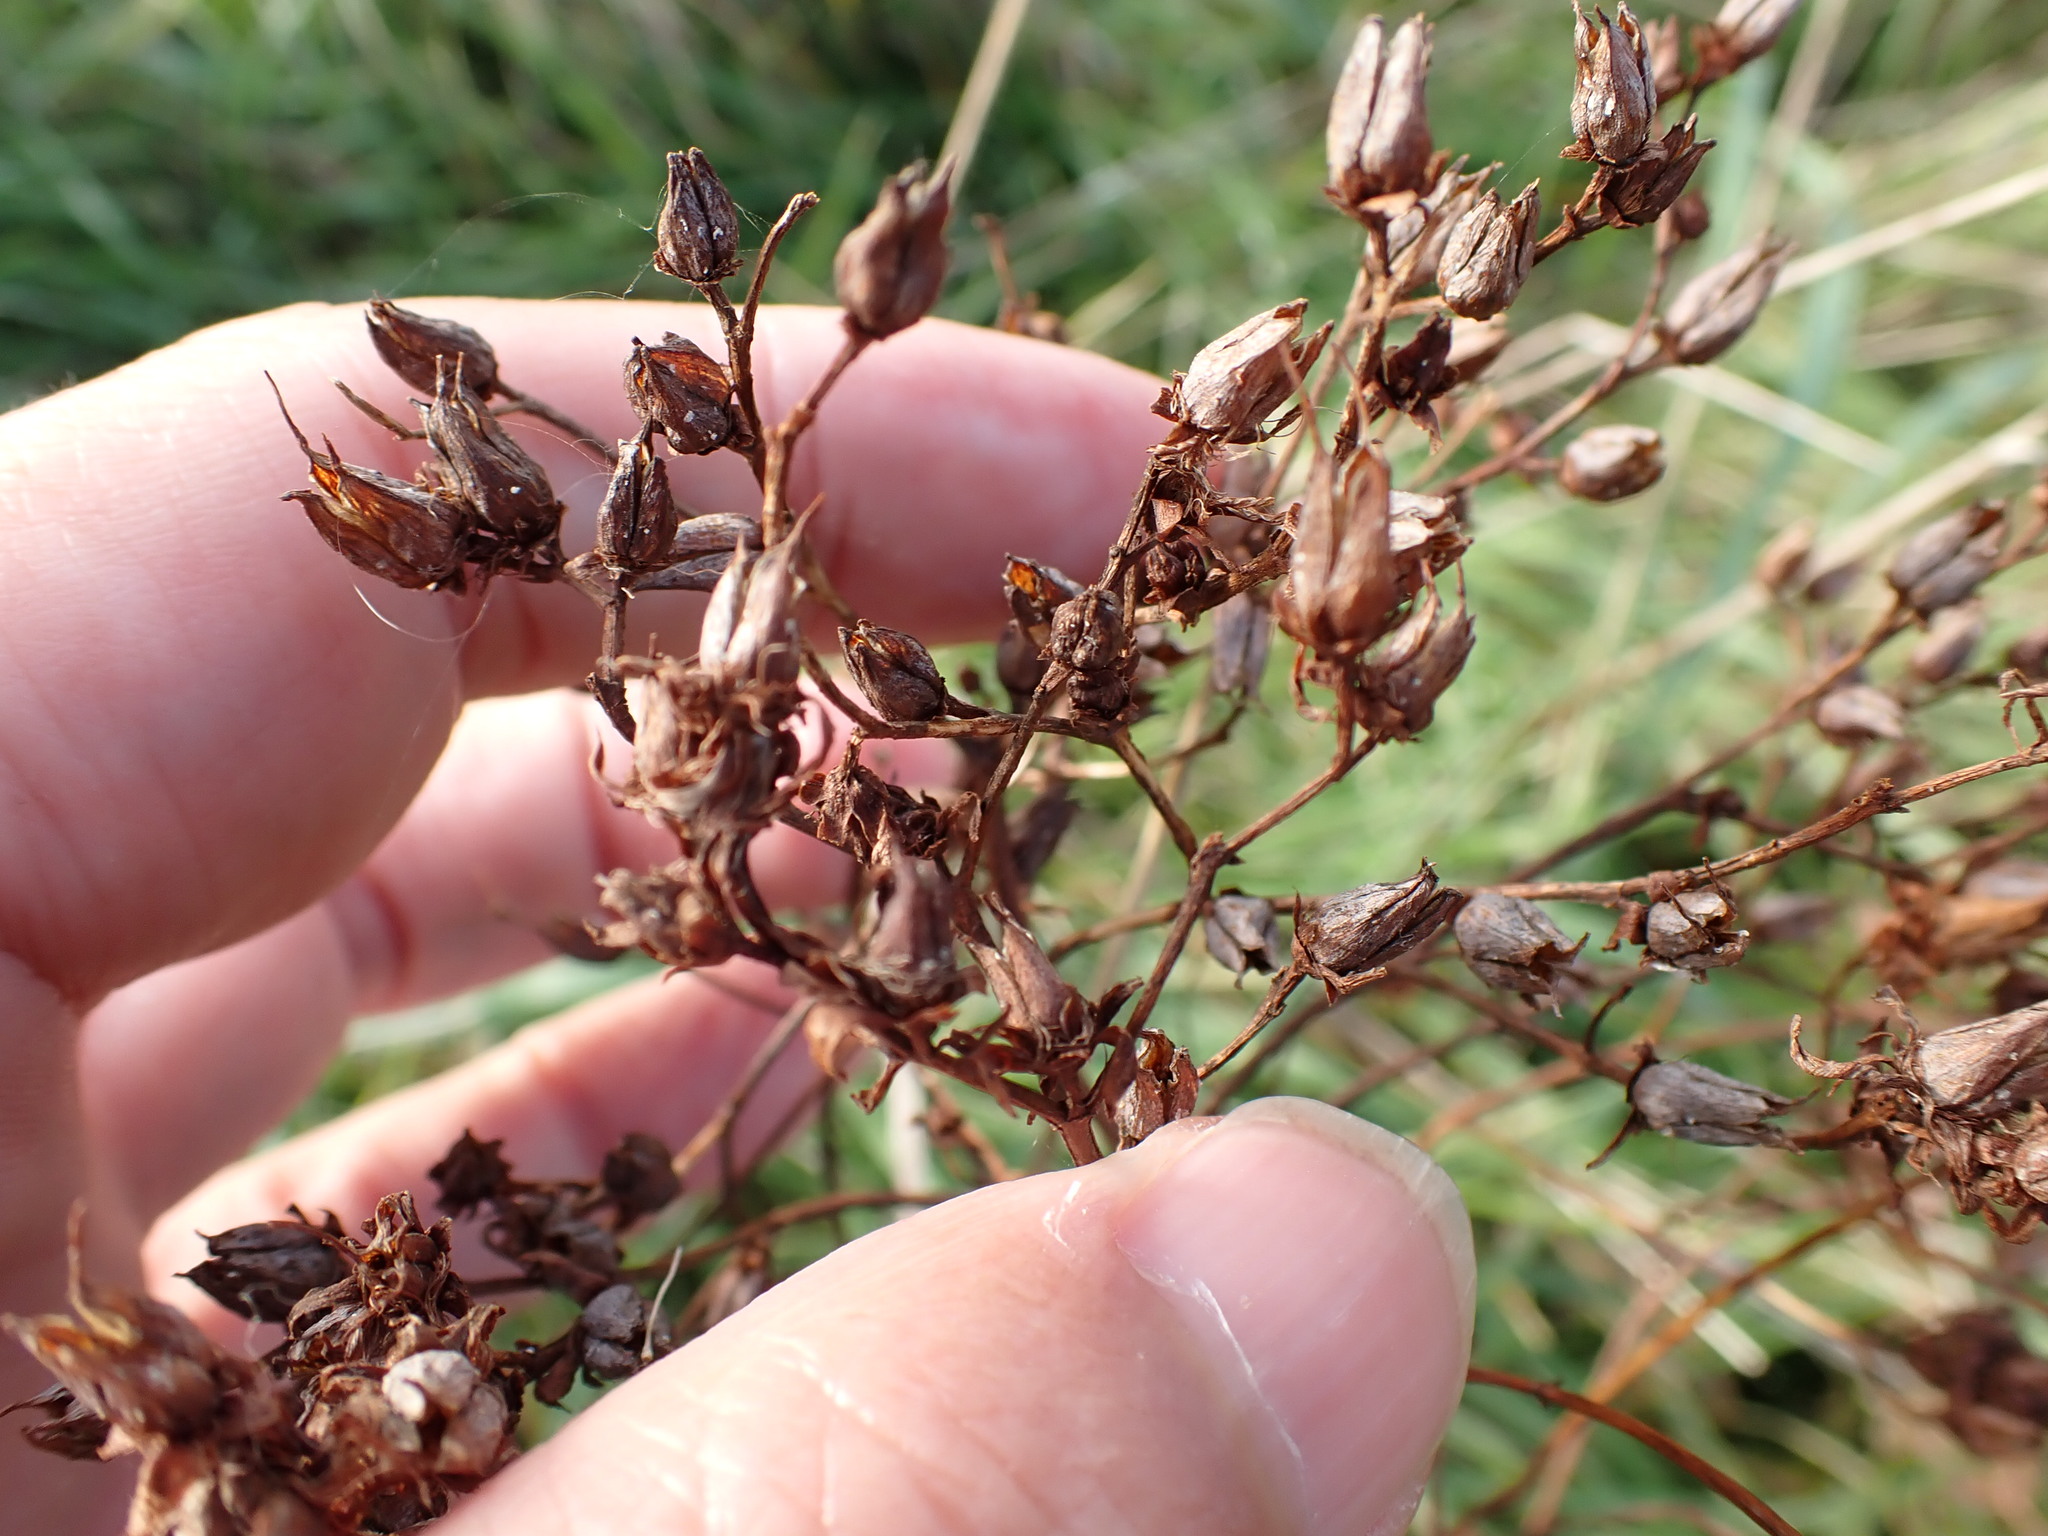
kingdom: Plantae
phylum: Tracheophyta
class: Magnoliopsida
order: Malpighiales
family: Hypericaceae
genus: Hypericum
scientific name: Hypericum perforatum
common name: Common st. johnswort
